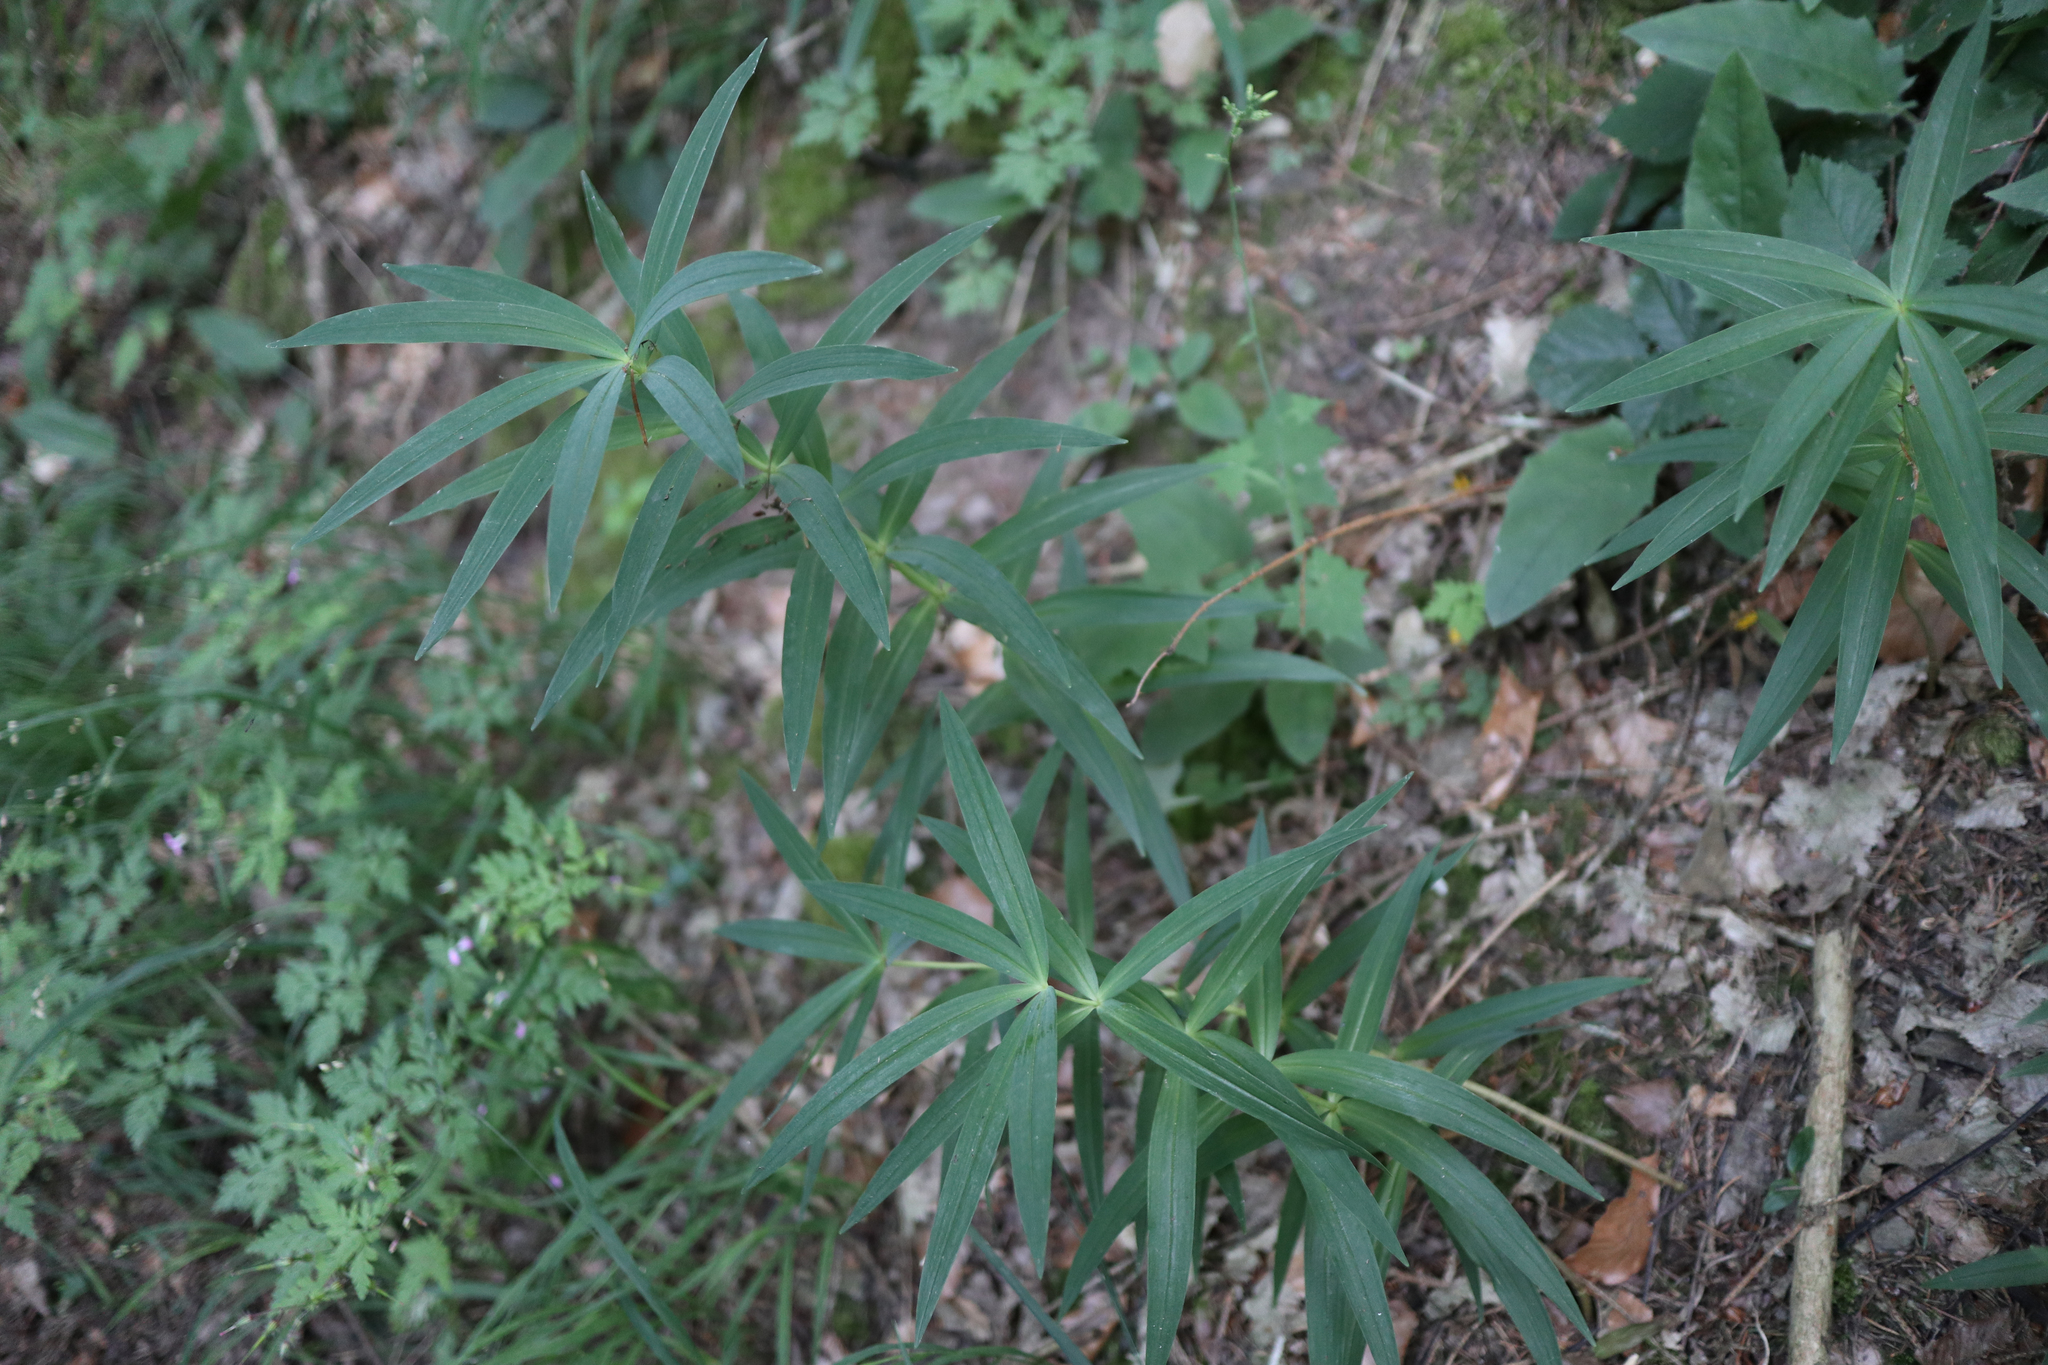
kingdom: Plantae
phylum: Tracheophyta
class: Liliopsida
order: Asparagales
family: Asparagaceae
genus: Polygonatum
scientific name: Polygonatum verticillatum
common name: Whorled solomon's-seal
